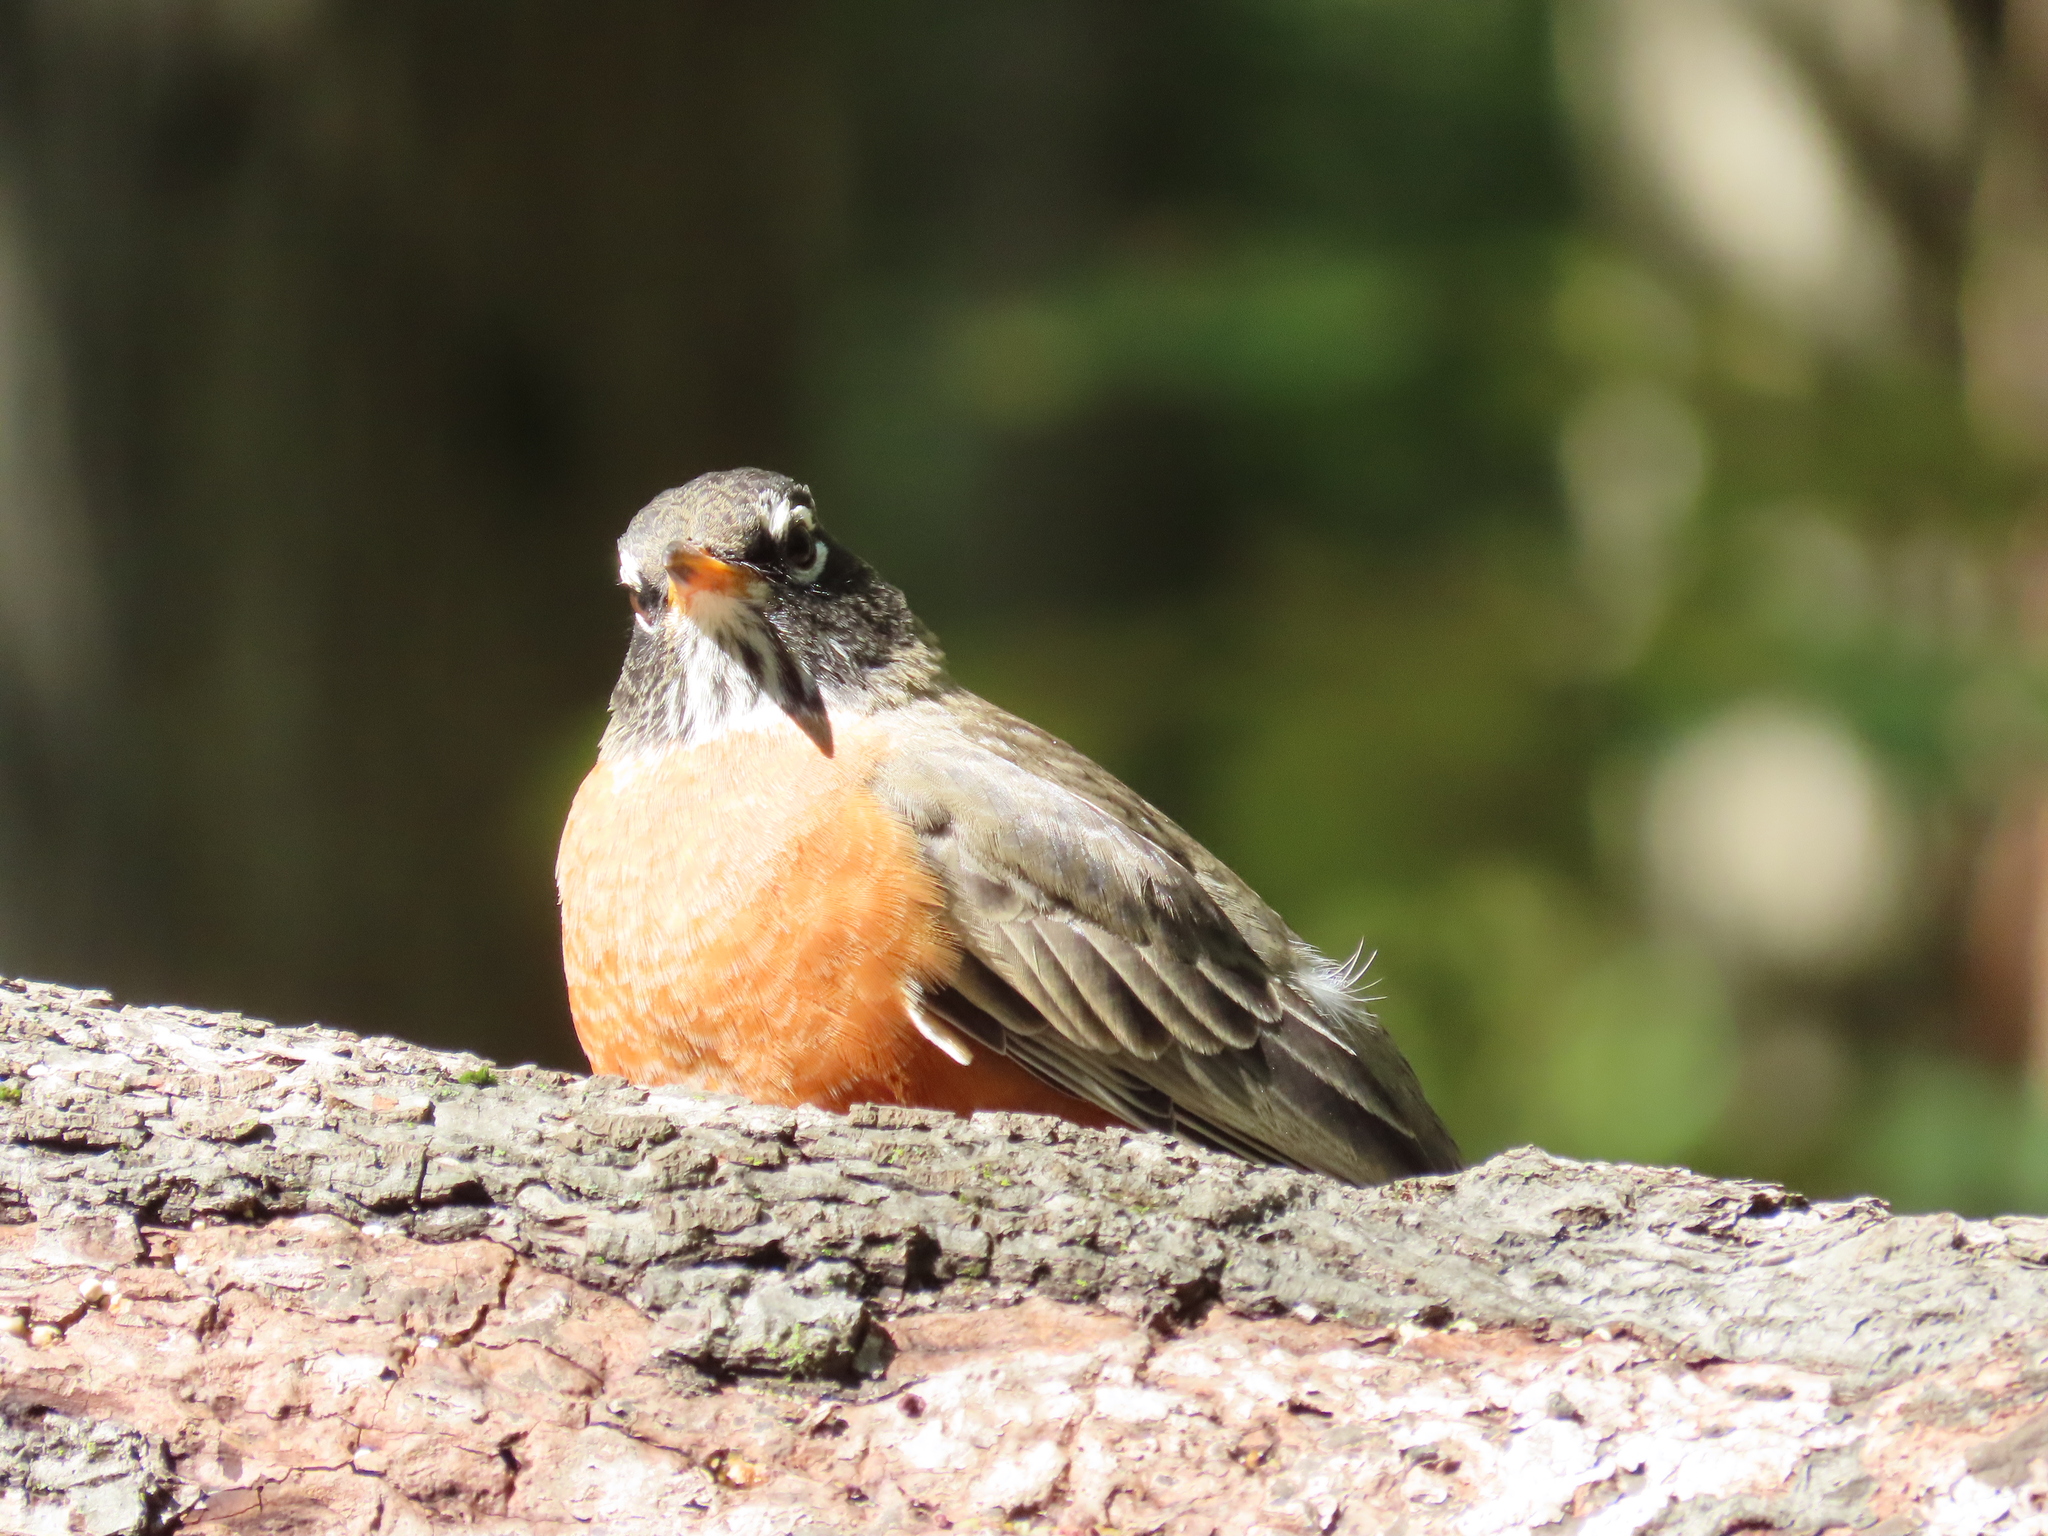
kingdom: Animalia
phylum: Chordata
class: Aves
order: Passeriformes
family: Turdidae
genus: Turdus
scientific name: Turdus migratorius
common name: American robin
